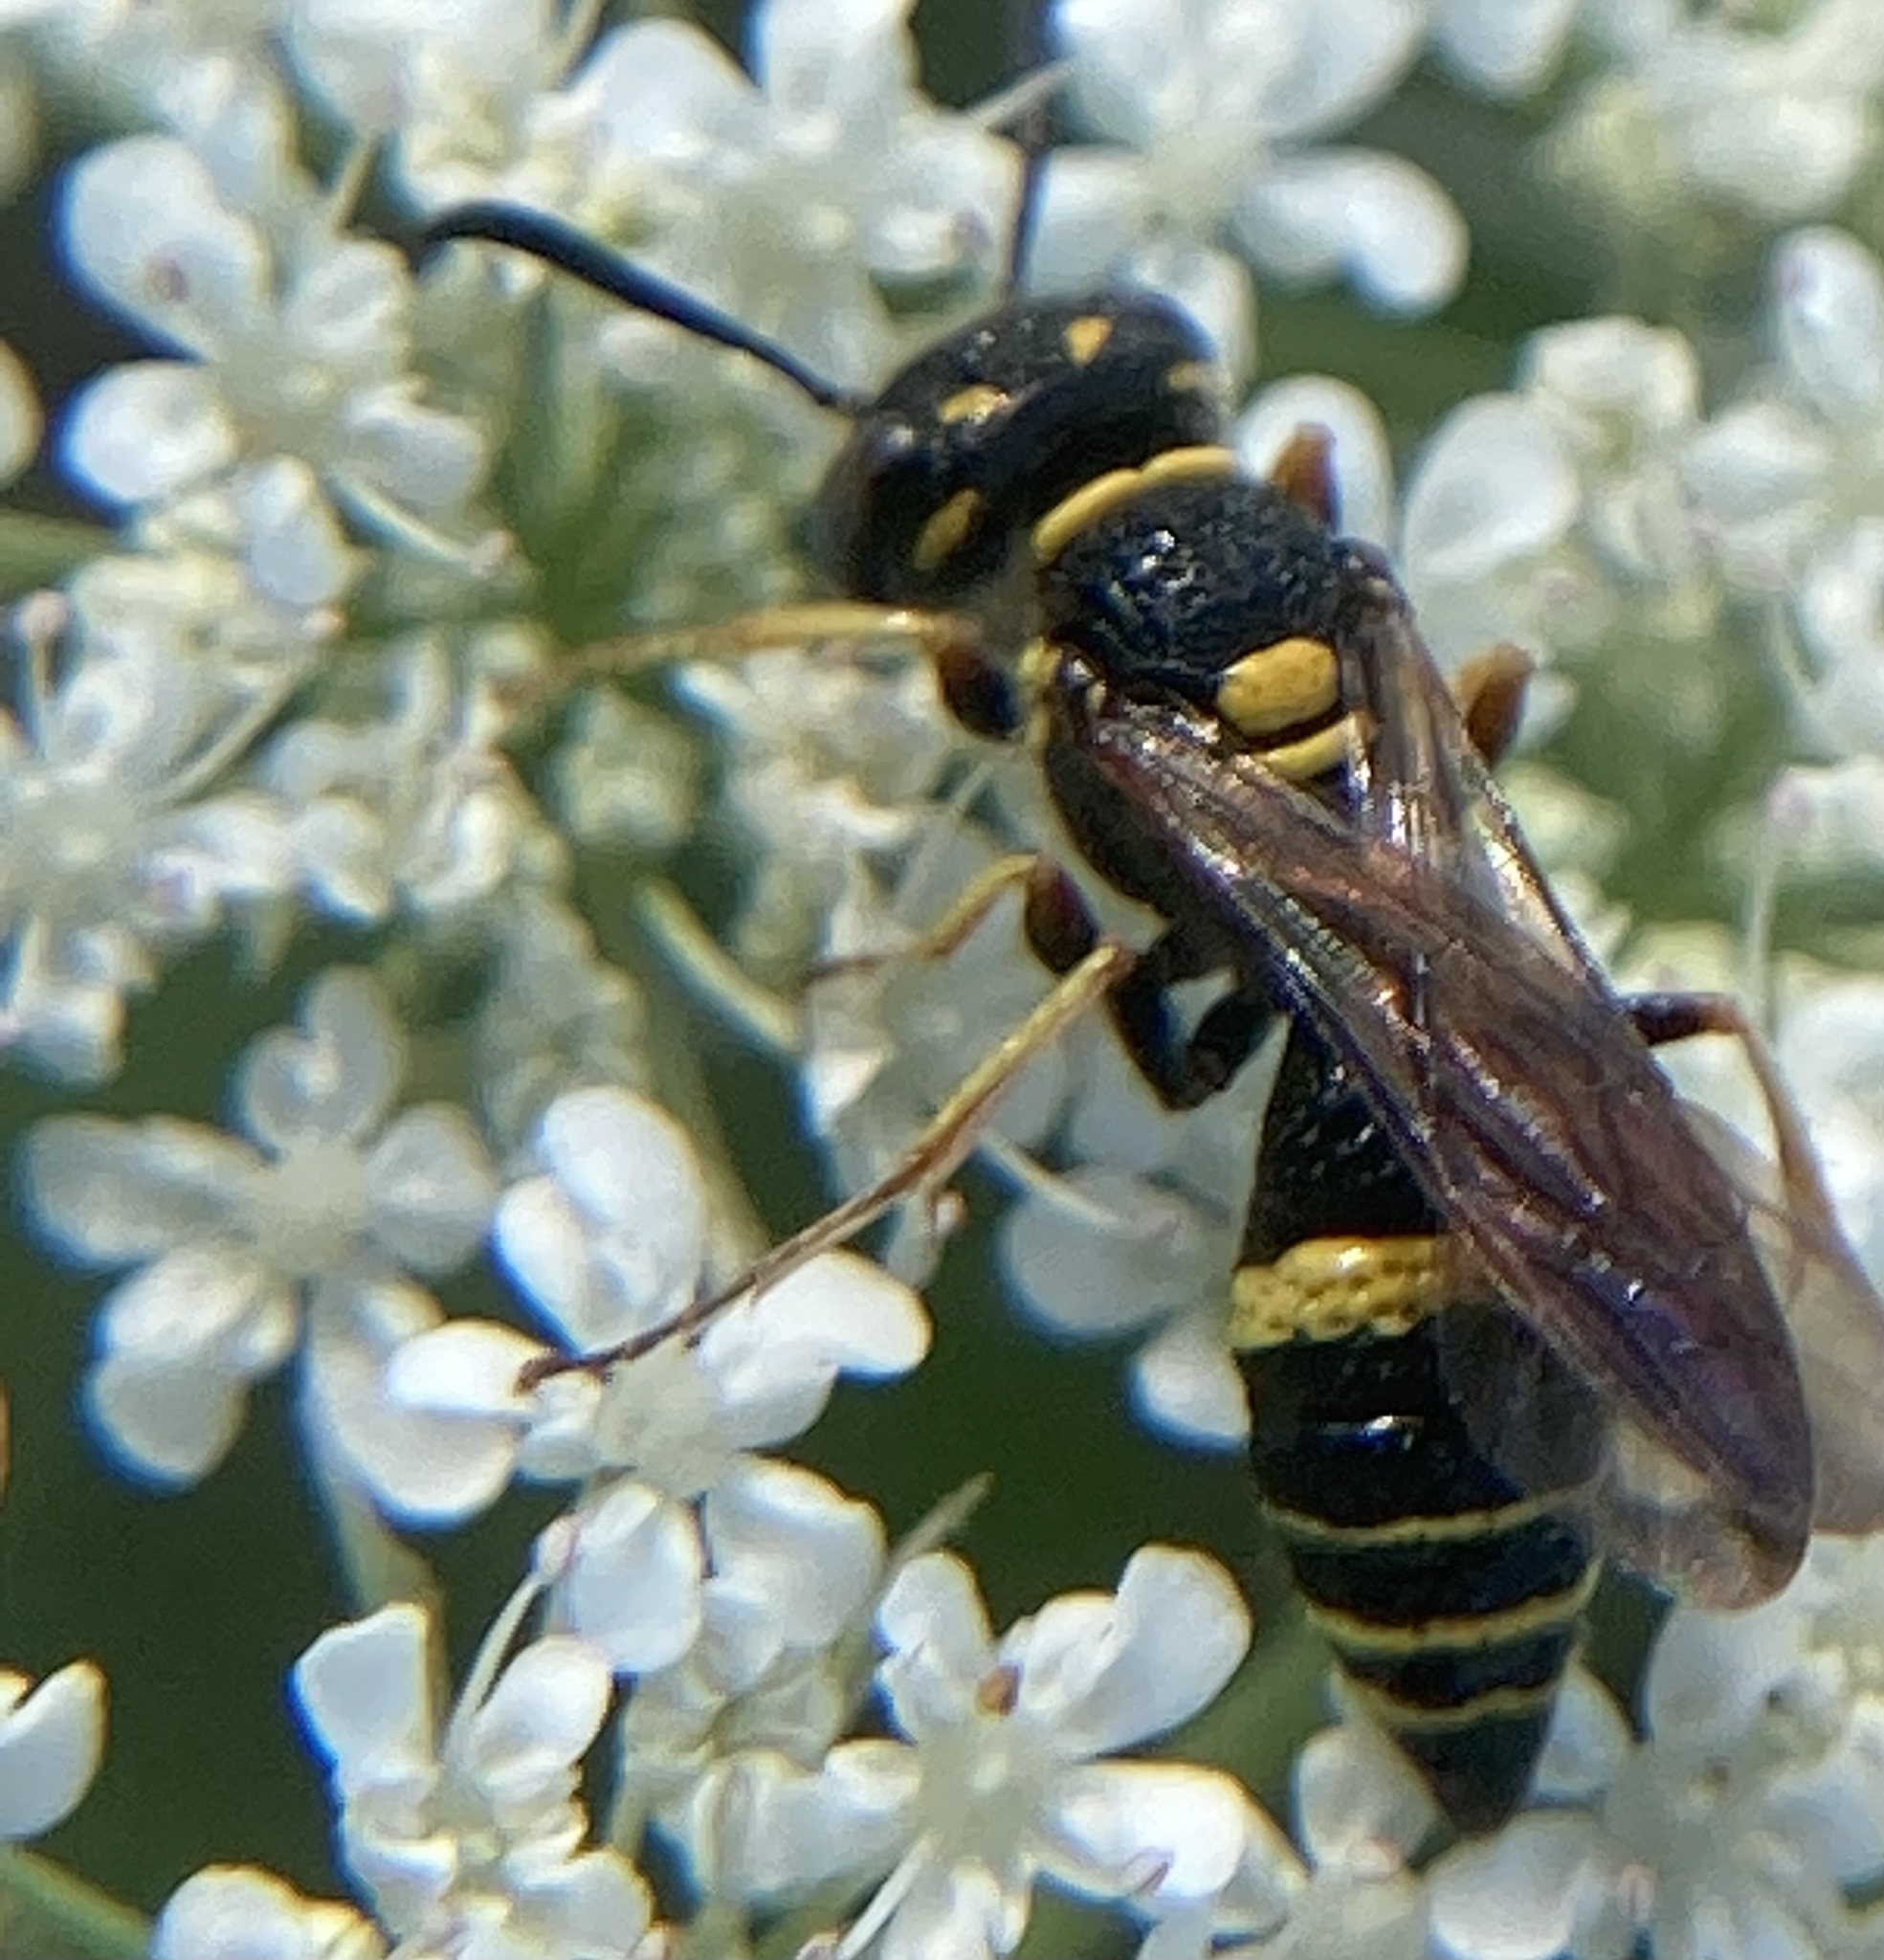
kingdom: Animalia
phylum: Arthropoda
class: Insecta
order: Hymenoptera
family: Crabronidae
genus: Philanthus
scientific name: Philanthus gibbosus
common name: Humped beewolf
